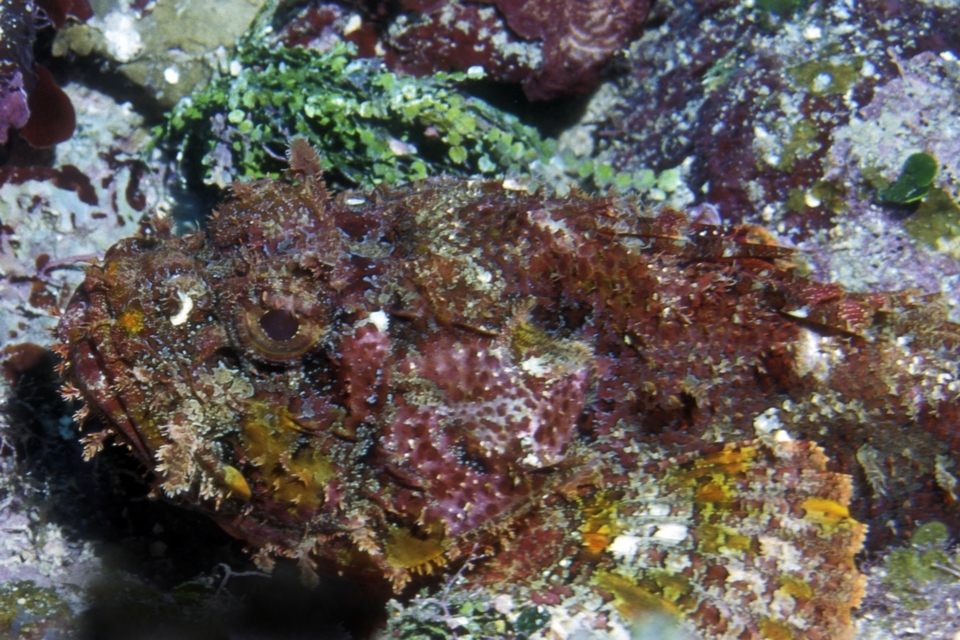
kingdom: Animalia
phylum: Chordata
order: Scorpaeniformes
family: Scorpaenidae
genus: Scorpaena
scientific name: Scorpaena plumieri
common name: Spotted scorpionfish
